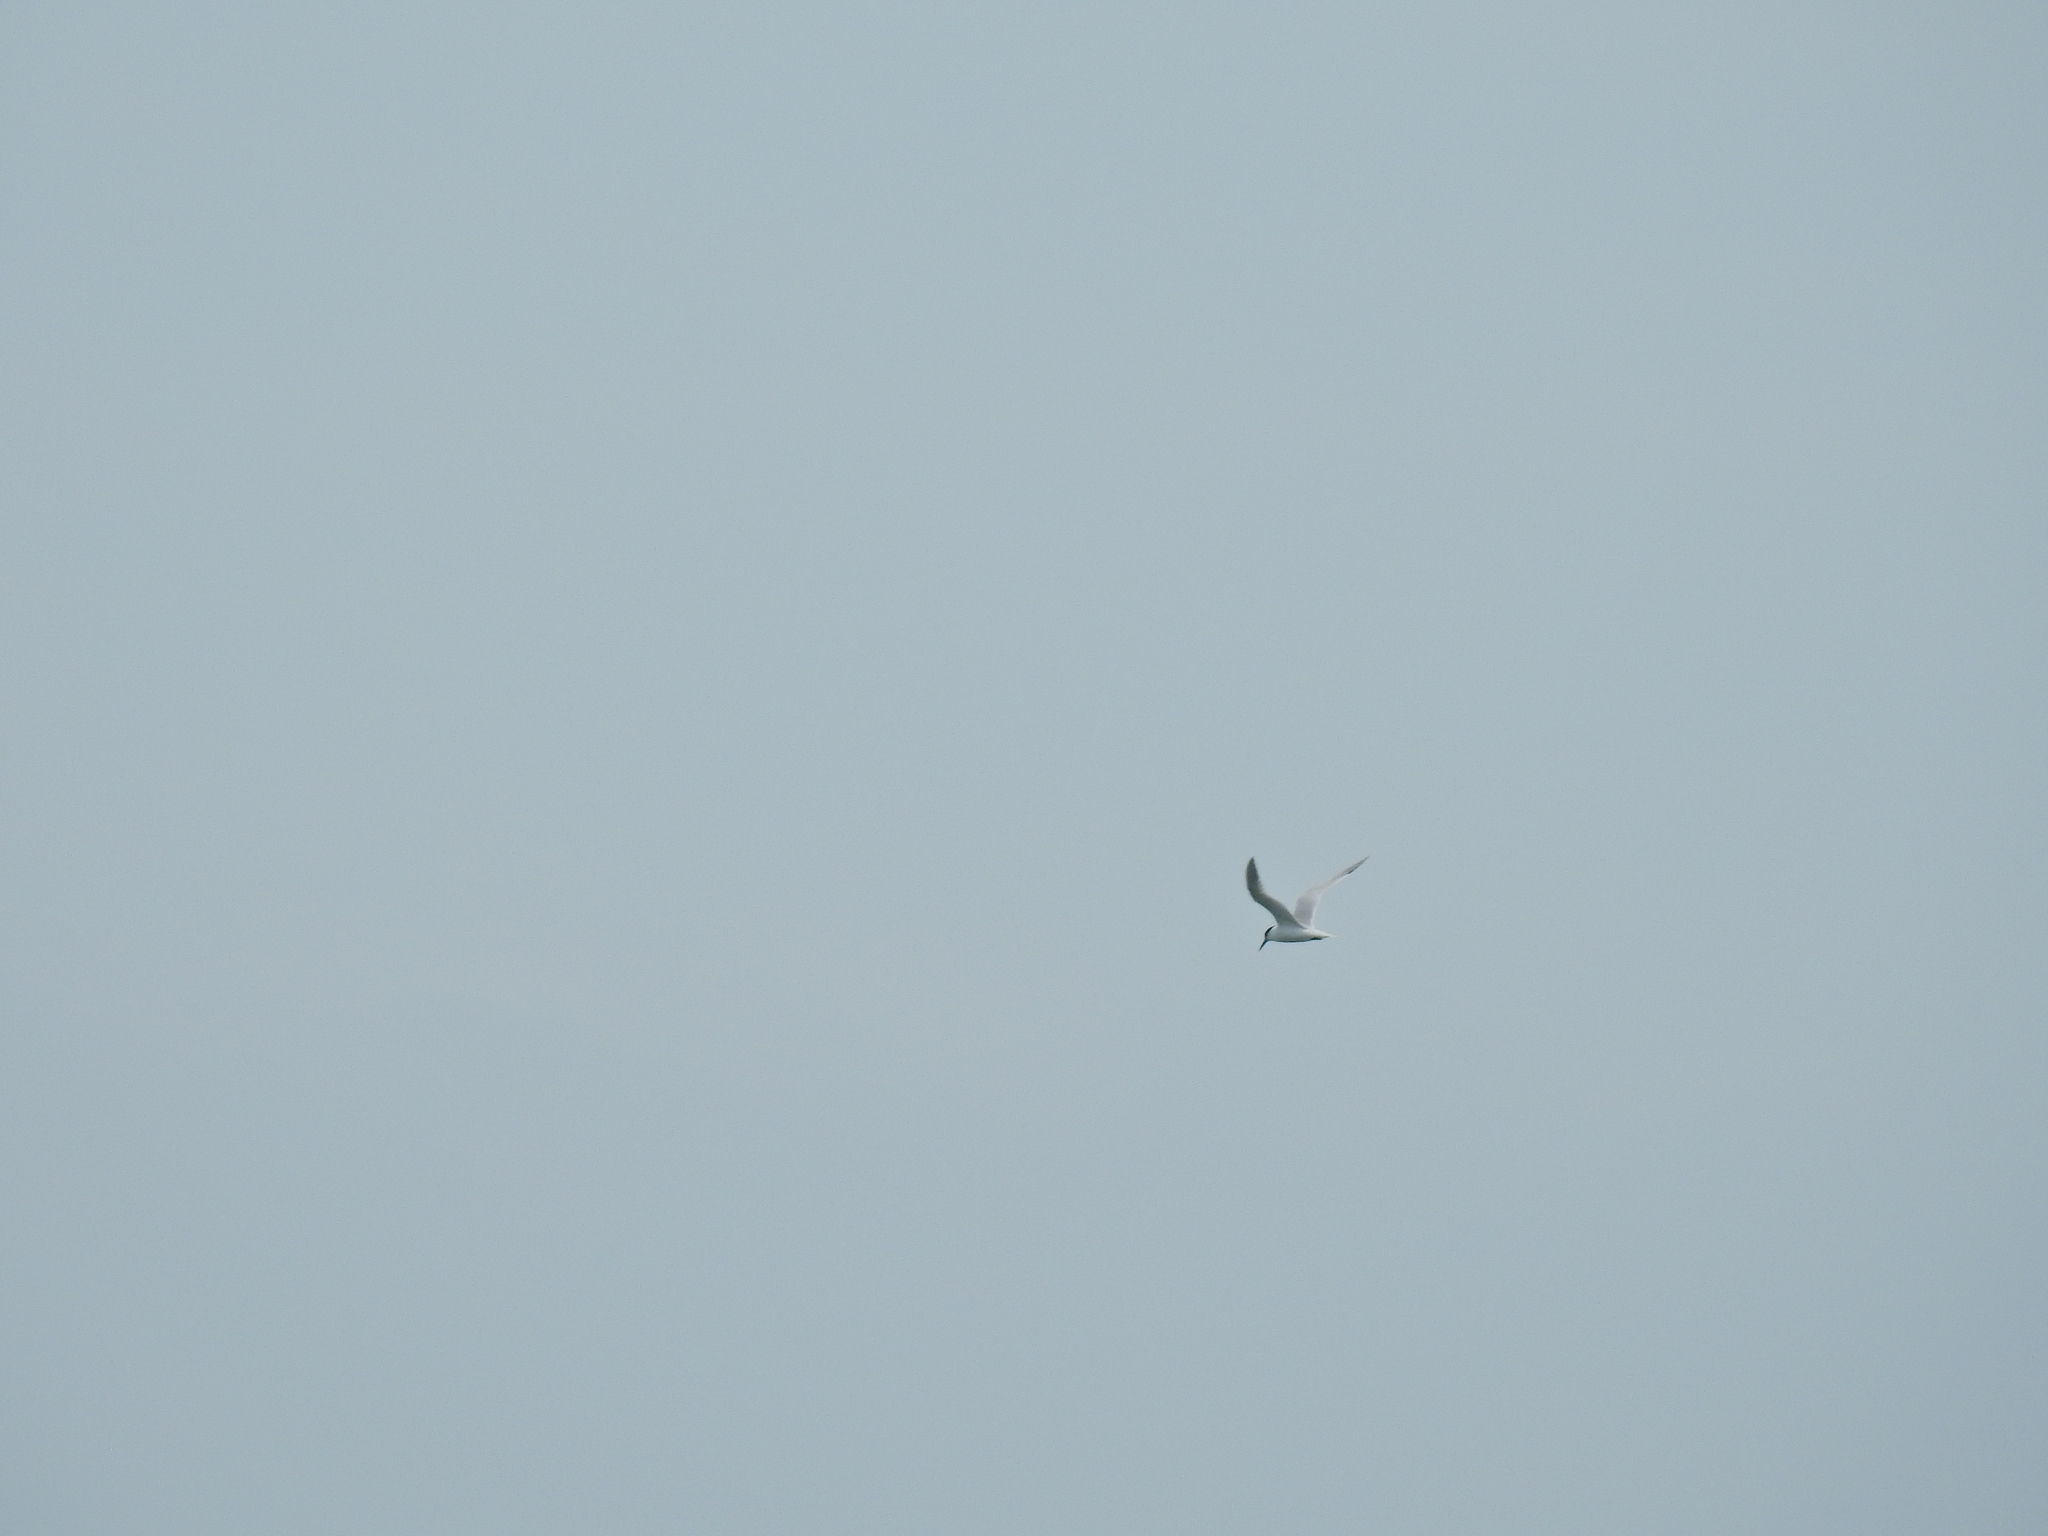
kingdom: Animalia
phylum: Chordata
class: Aves
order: Charadriiformes
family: Laridae
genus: Thalasseus
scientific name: Thalasseus sandvicensis
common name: Sandwich tern
